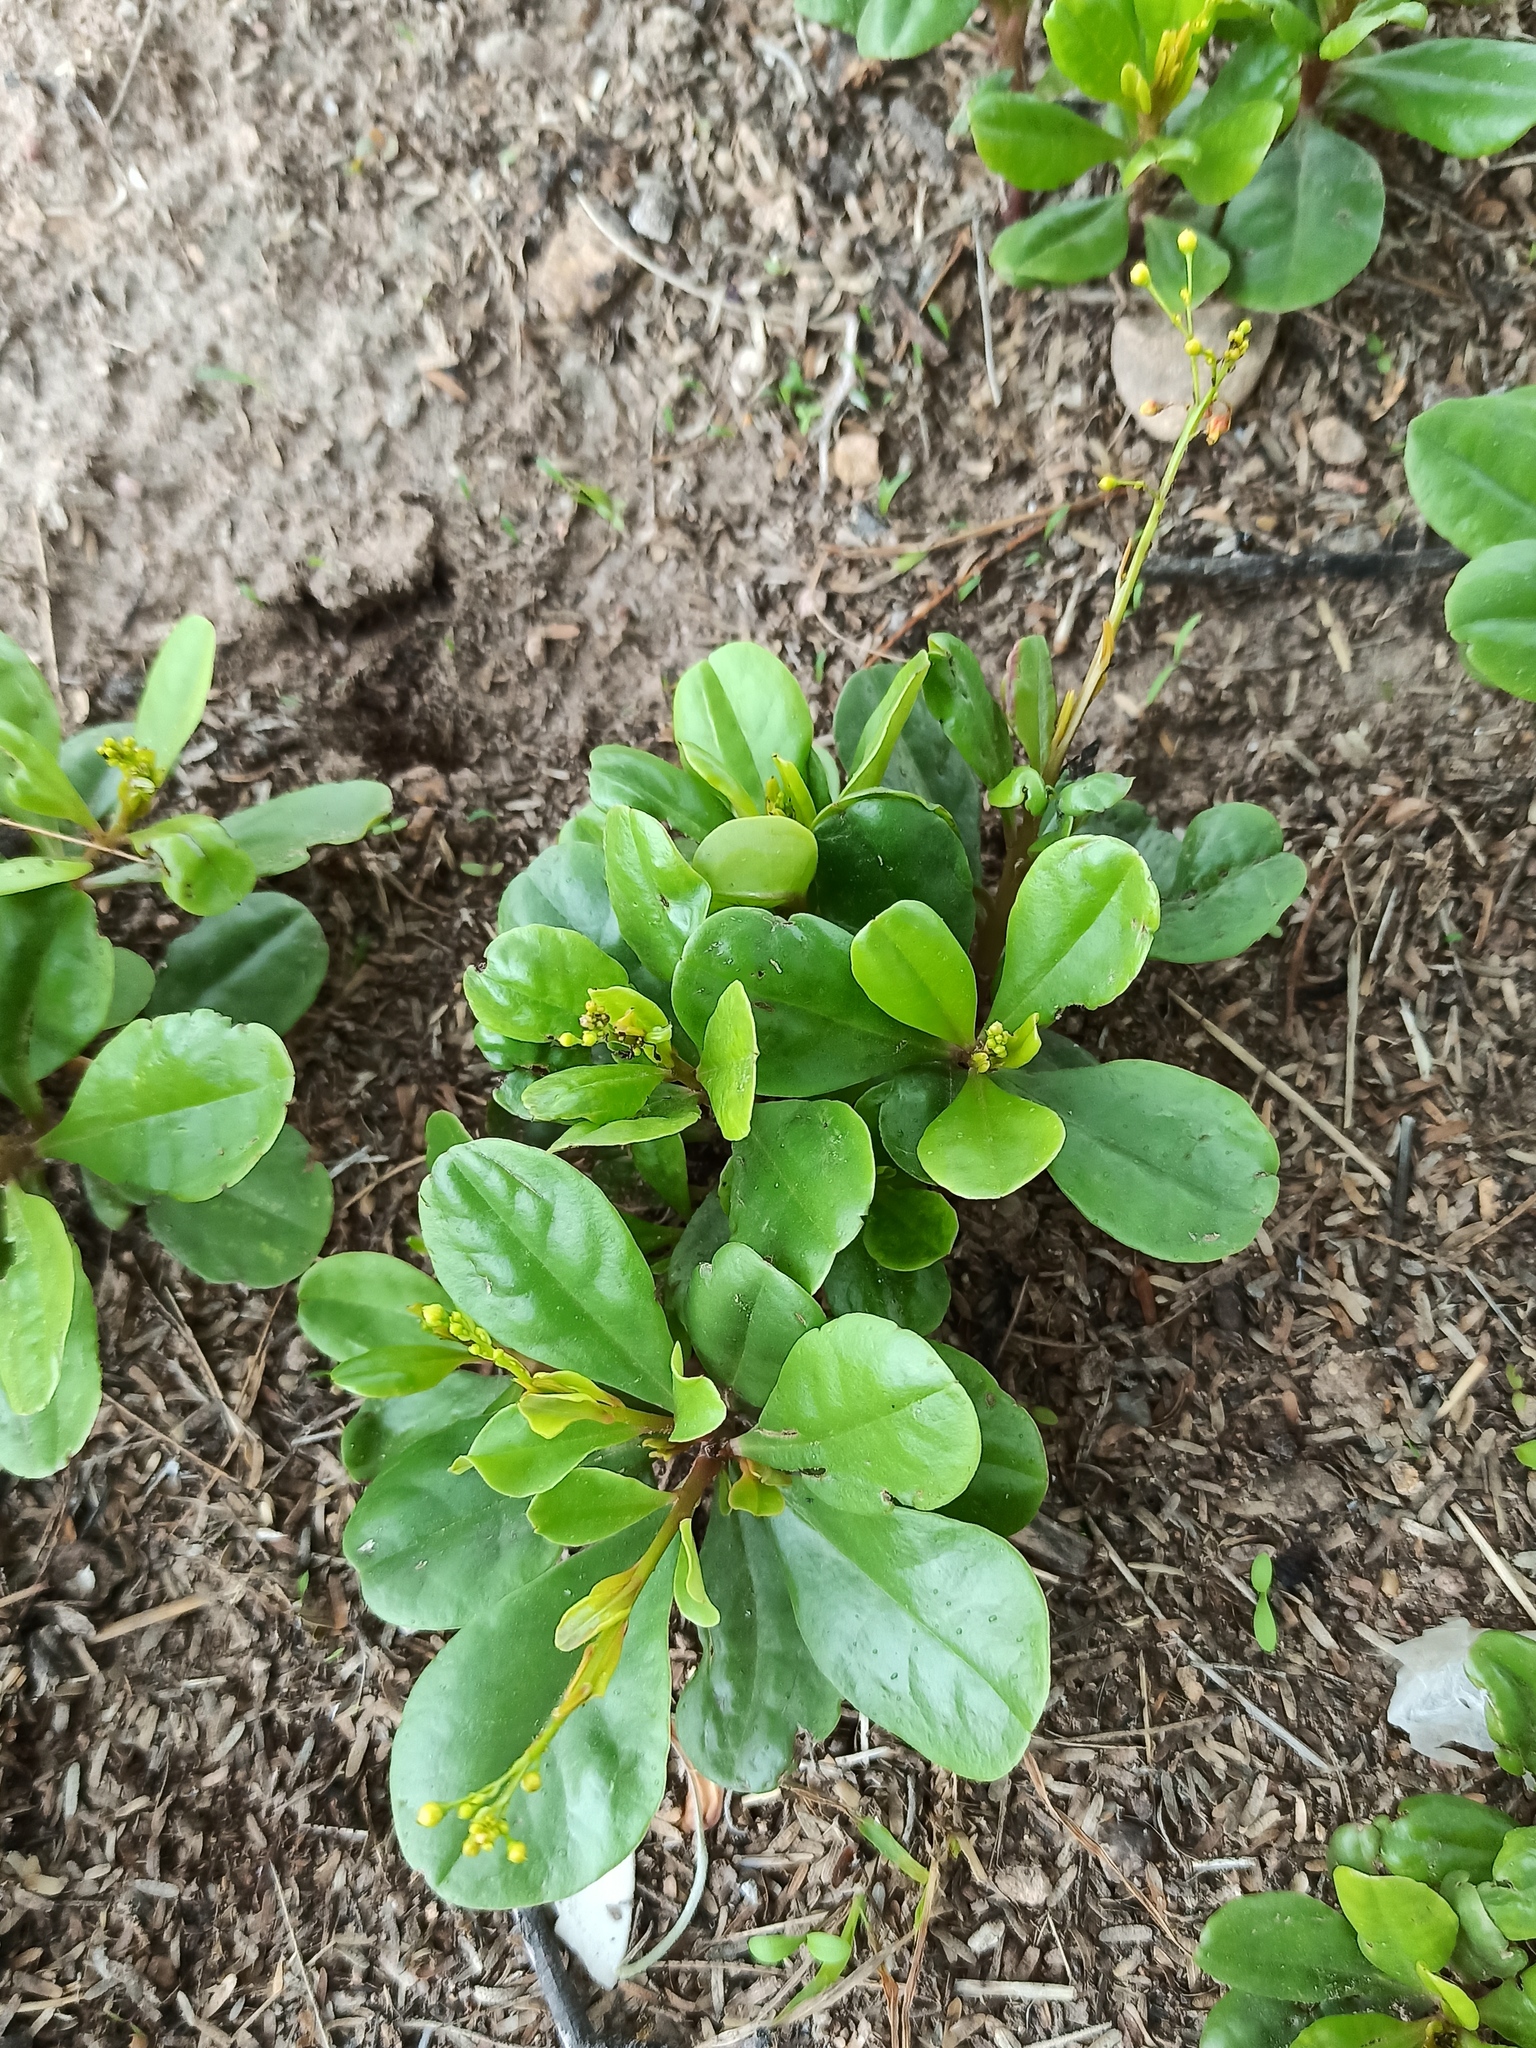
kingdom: Plantae
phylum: Tracheophyta
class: Magnoliopsida
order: Caryophyllales
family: Talinaceae
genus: Talinum
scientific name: Talinum paniculatum
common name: Jewels of opar
